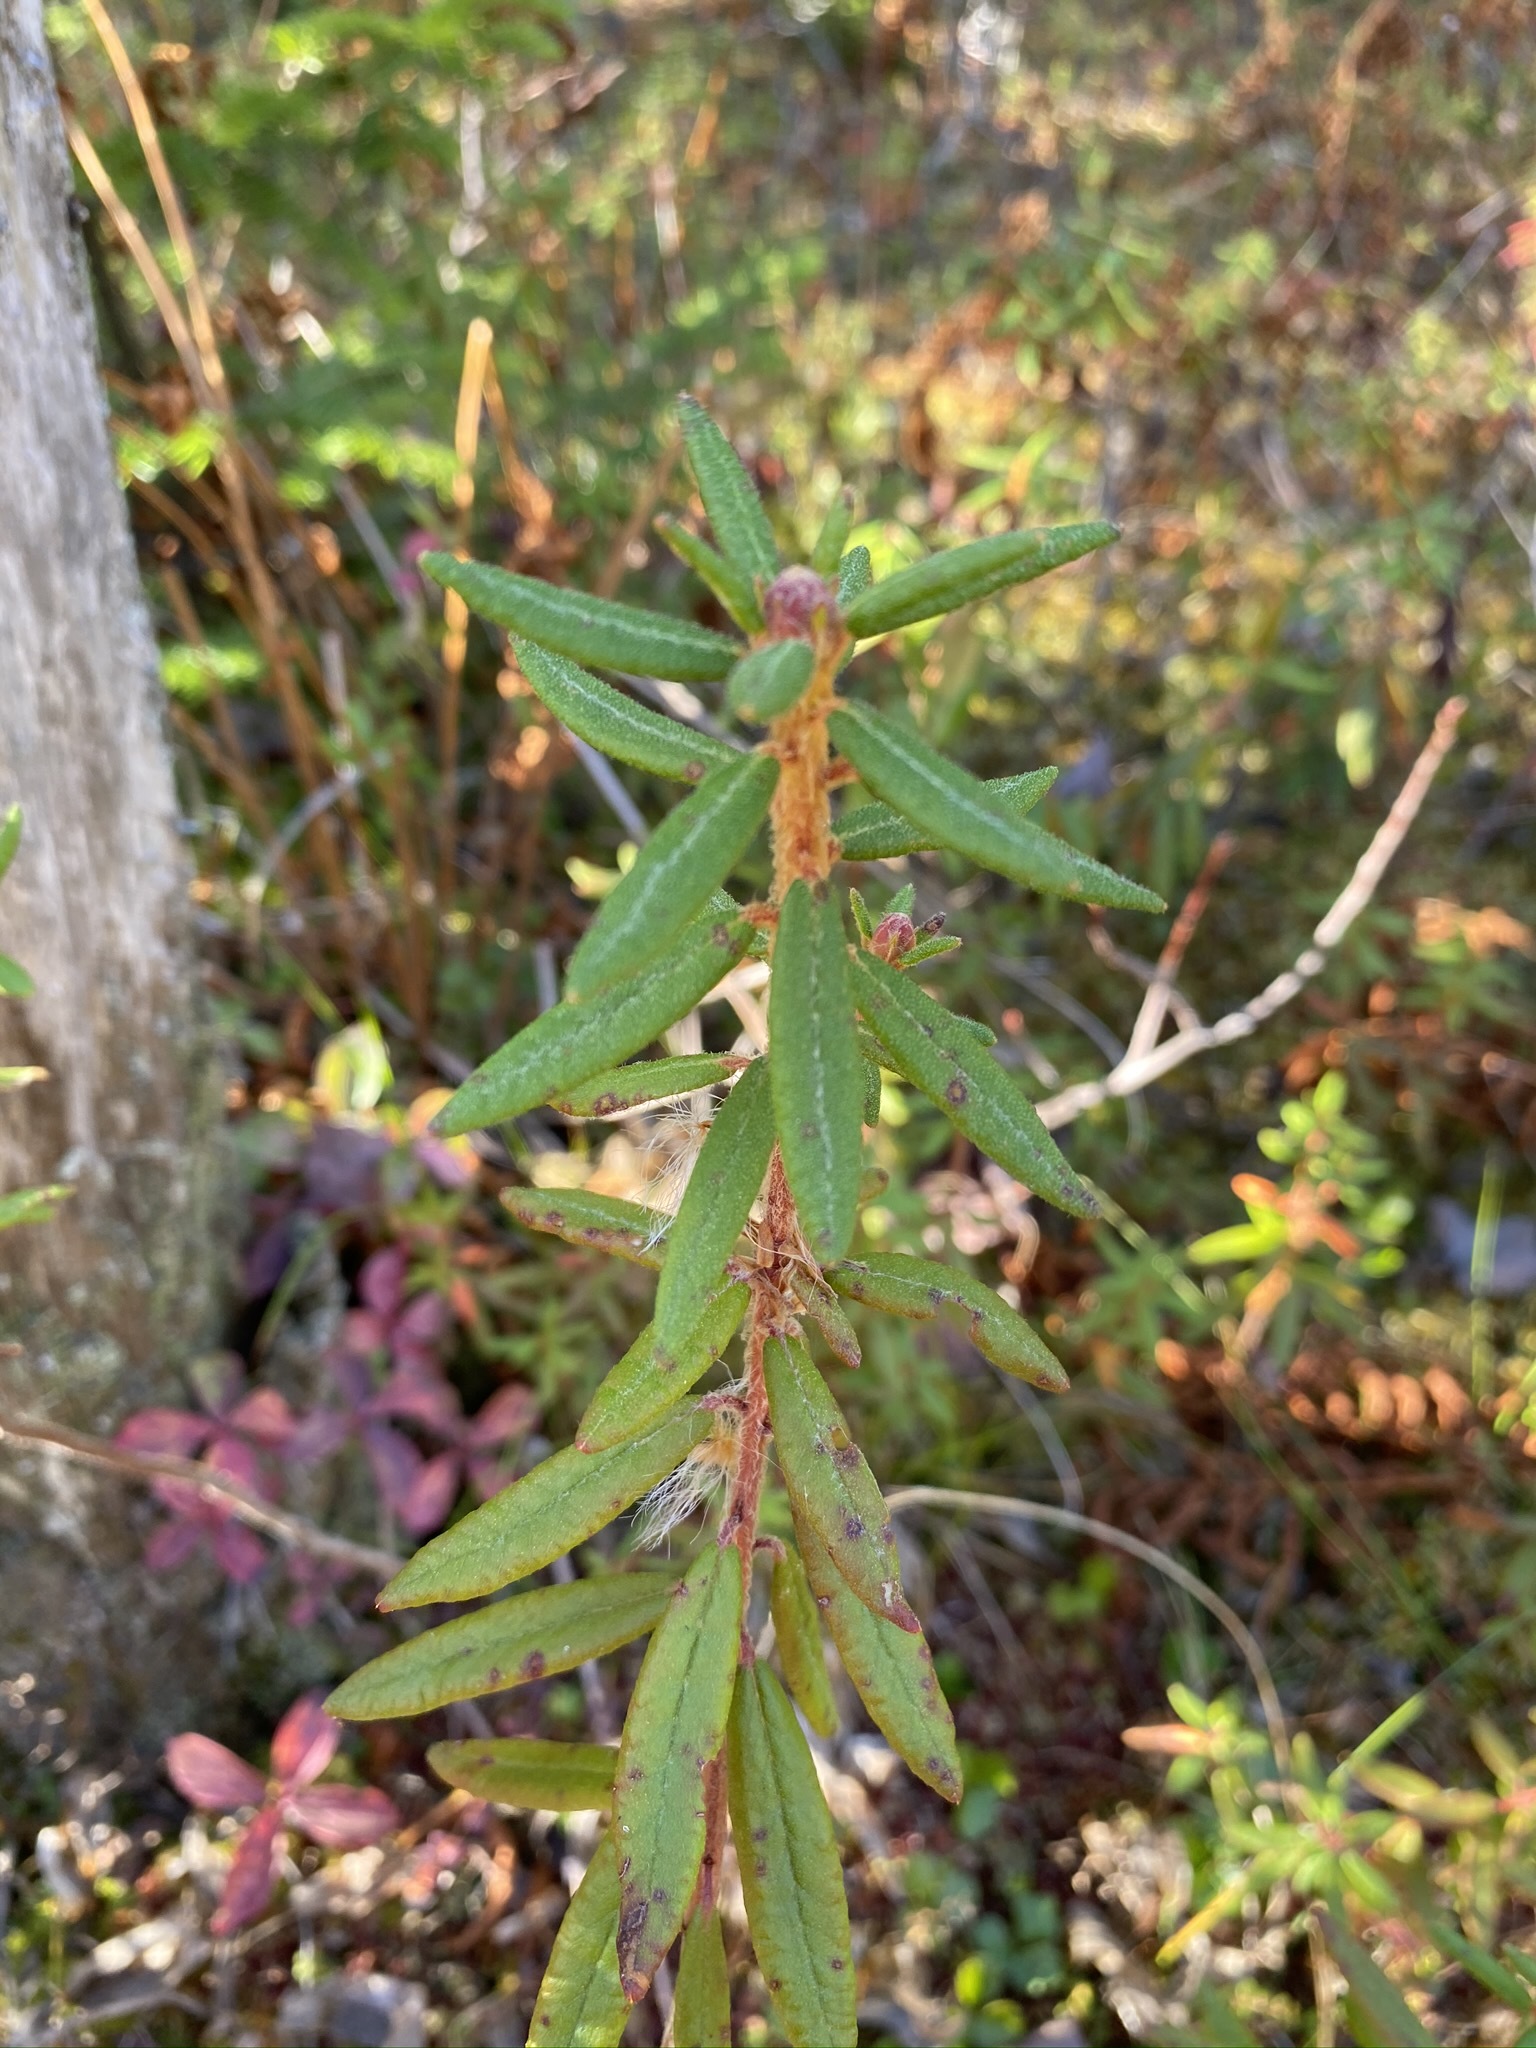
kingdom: Plantae
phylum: Tracheophyta
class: Magnoliopsida
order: Ericales
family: Ericaceae
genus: Rhododendron
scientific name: Rhododendron groenlandicum
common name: Bog labrador tea
